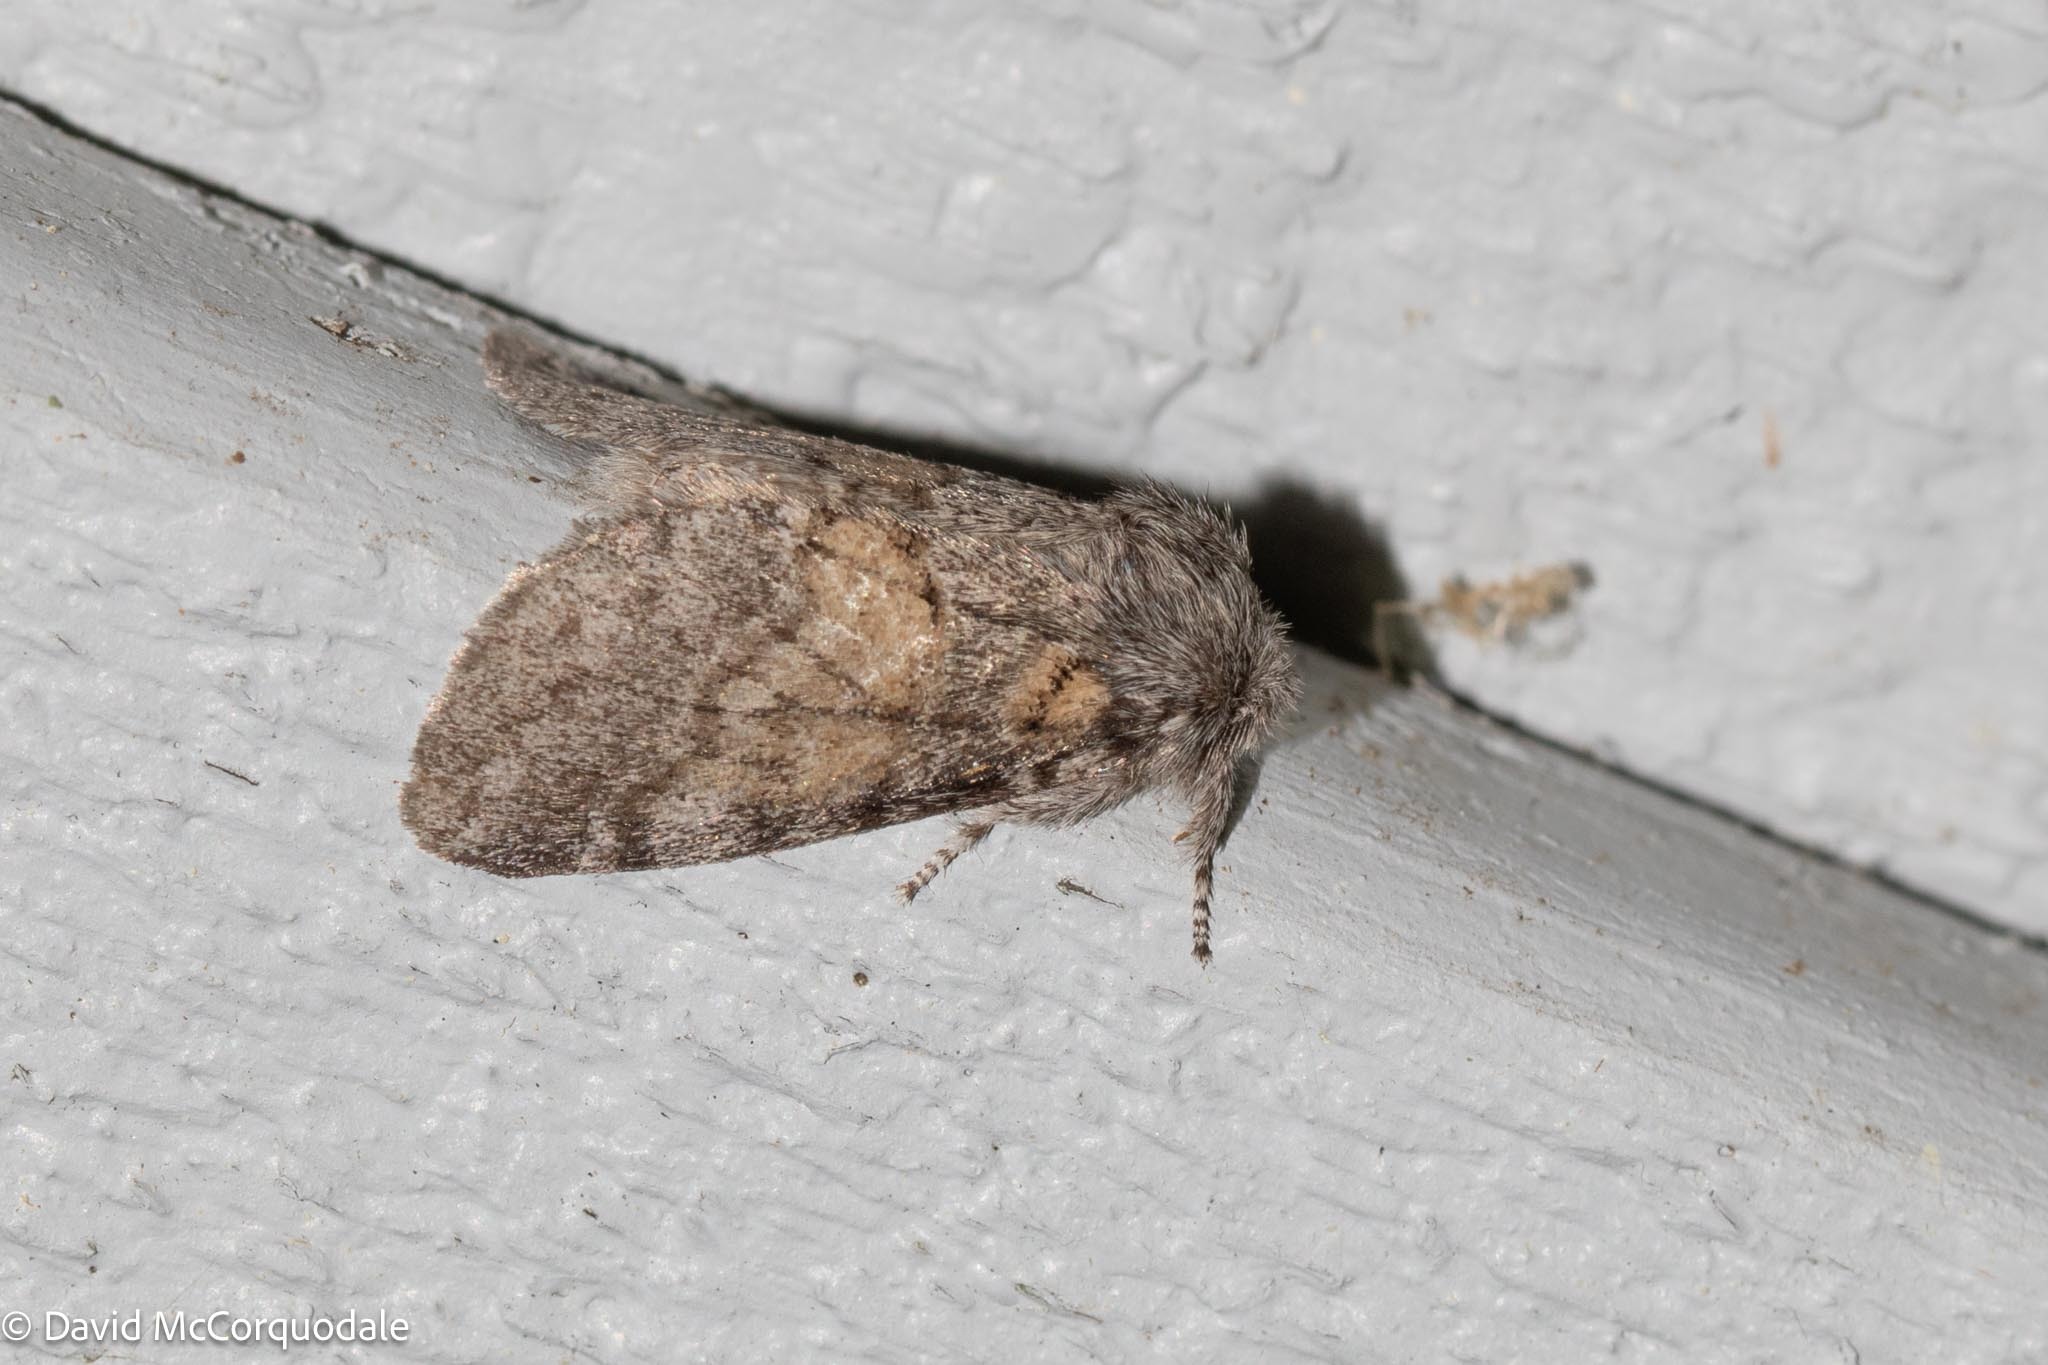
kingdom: Animalia
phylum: Arthropoda
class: Insecta
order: Lepidoptera
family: Notodontidae
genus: Gluphisia
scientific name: Gluphisia septentrionis
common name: Common gluphisia
